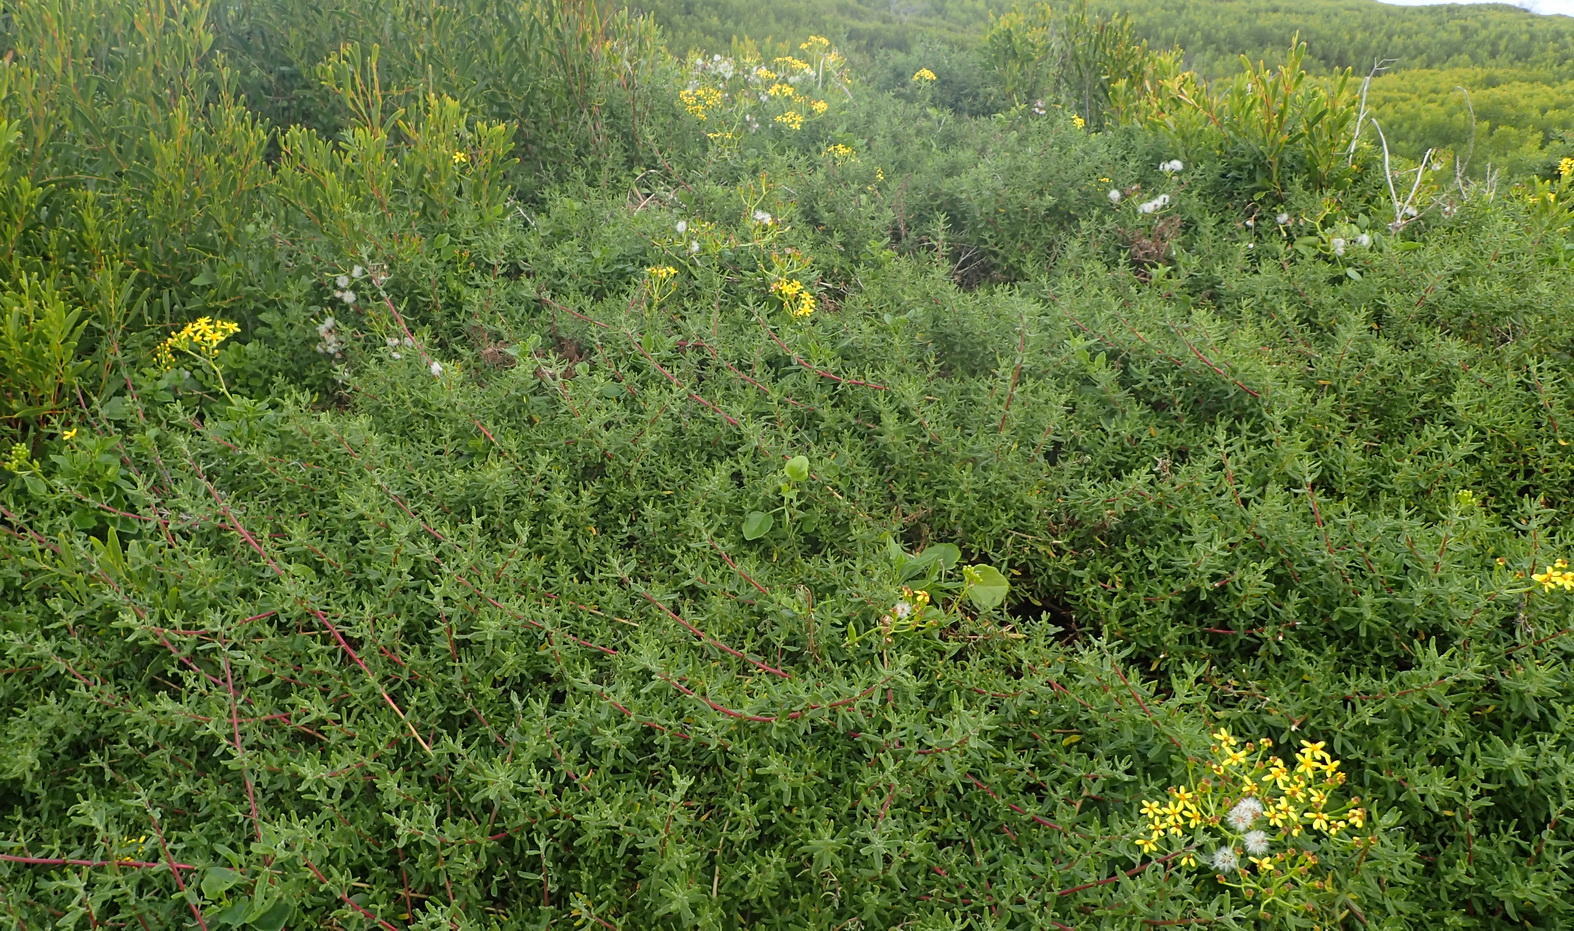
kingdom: Plantae
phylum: Tracheophyta
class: Magnoliopsida
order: Asterales
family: Asteraceae
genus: Senecio
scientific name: Senecio angulatus
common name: Climbing groundsel
